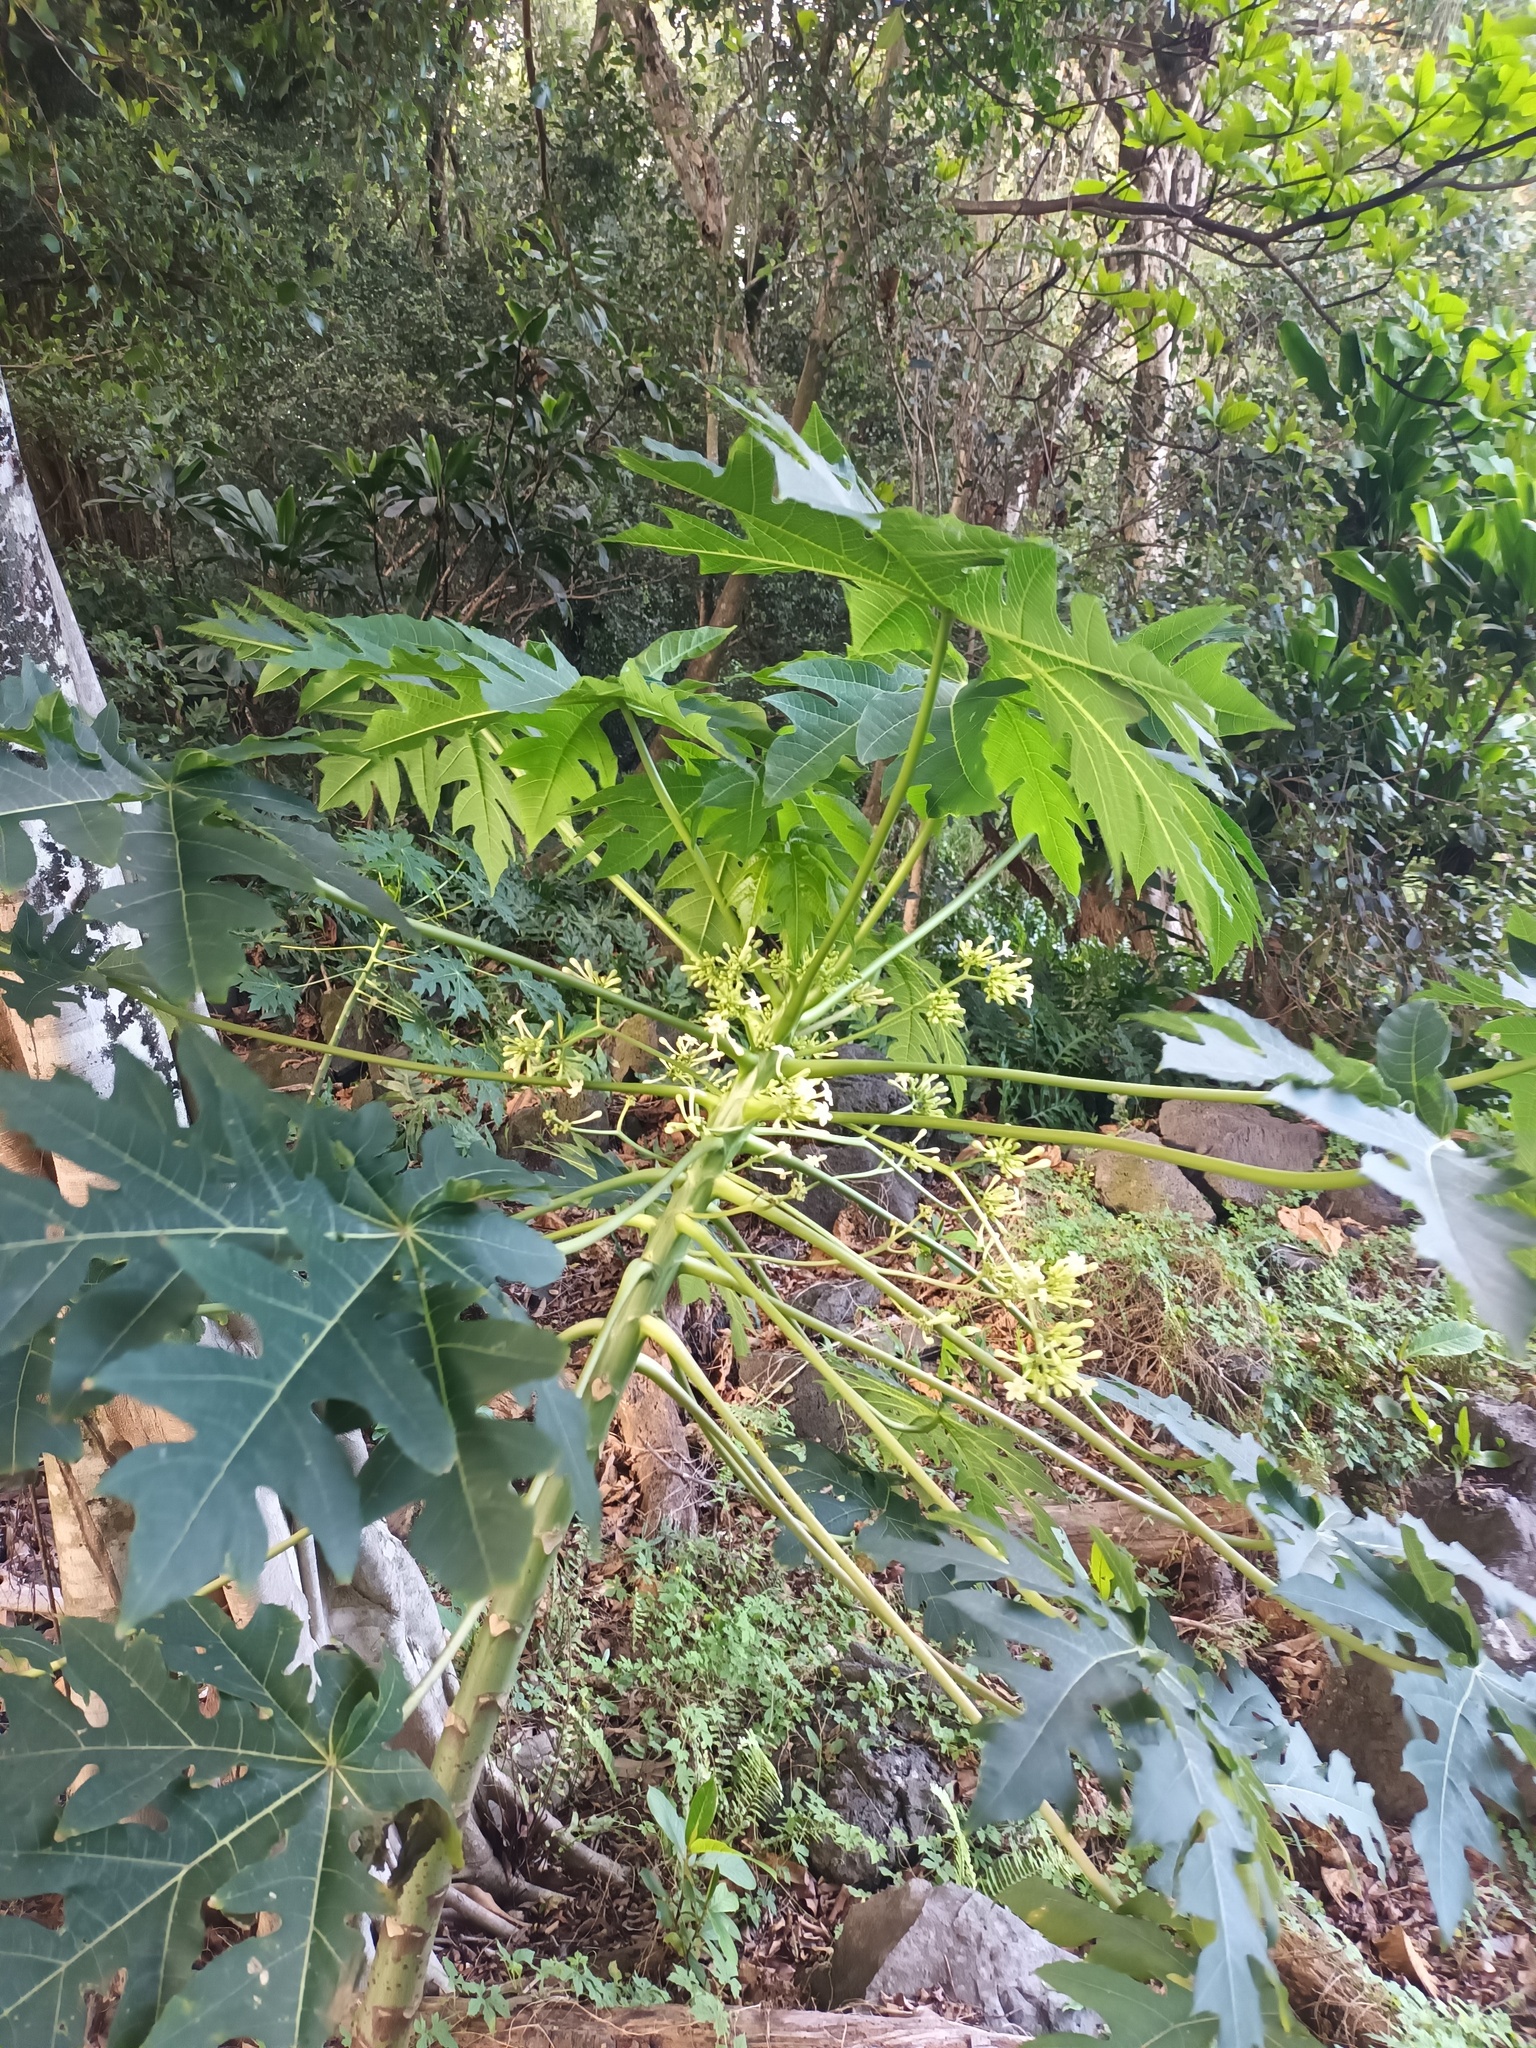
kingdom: Plantae
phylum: Tracheophyta
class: Magnoliopsida
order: Brassicales
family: Caricaceae
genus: Carica
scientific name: Carica papaya
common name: Papaya
